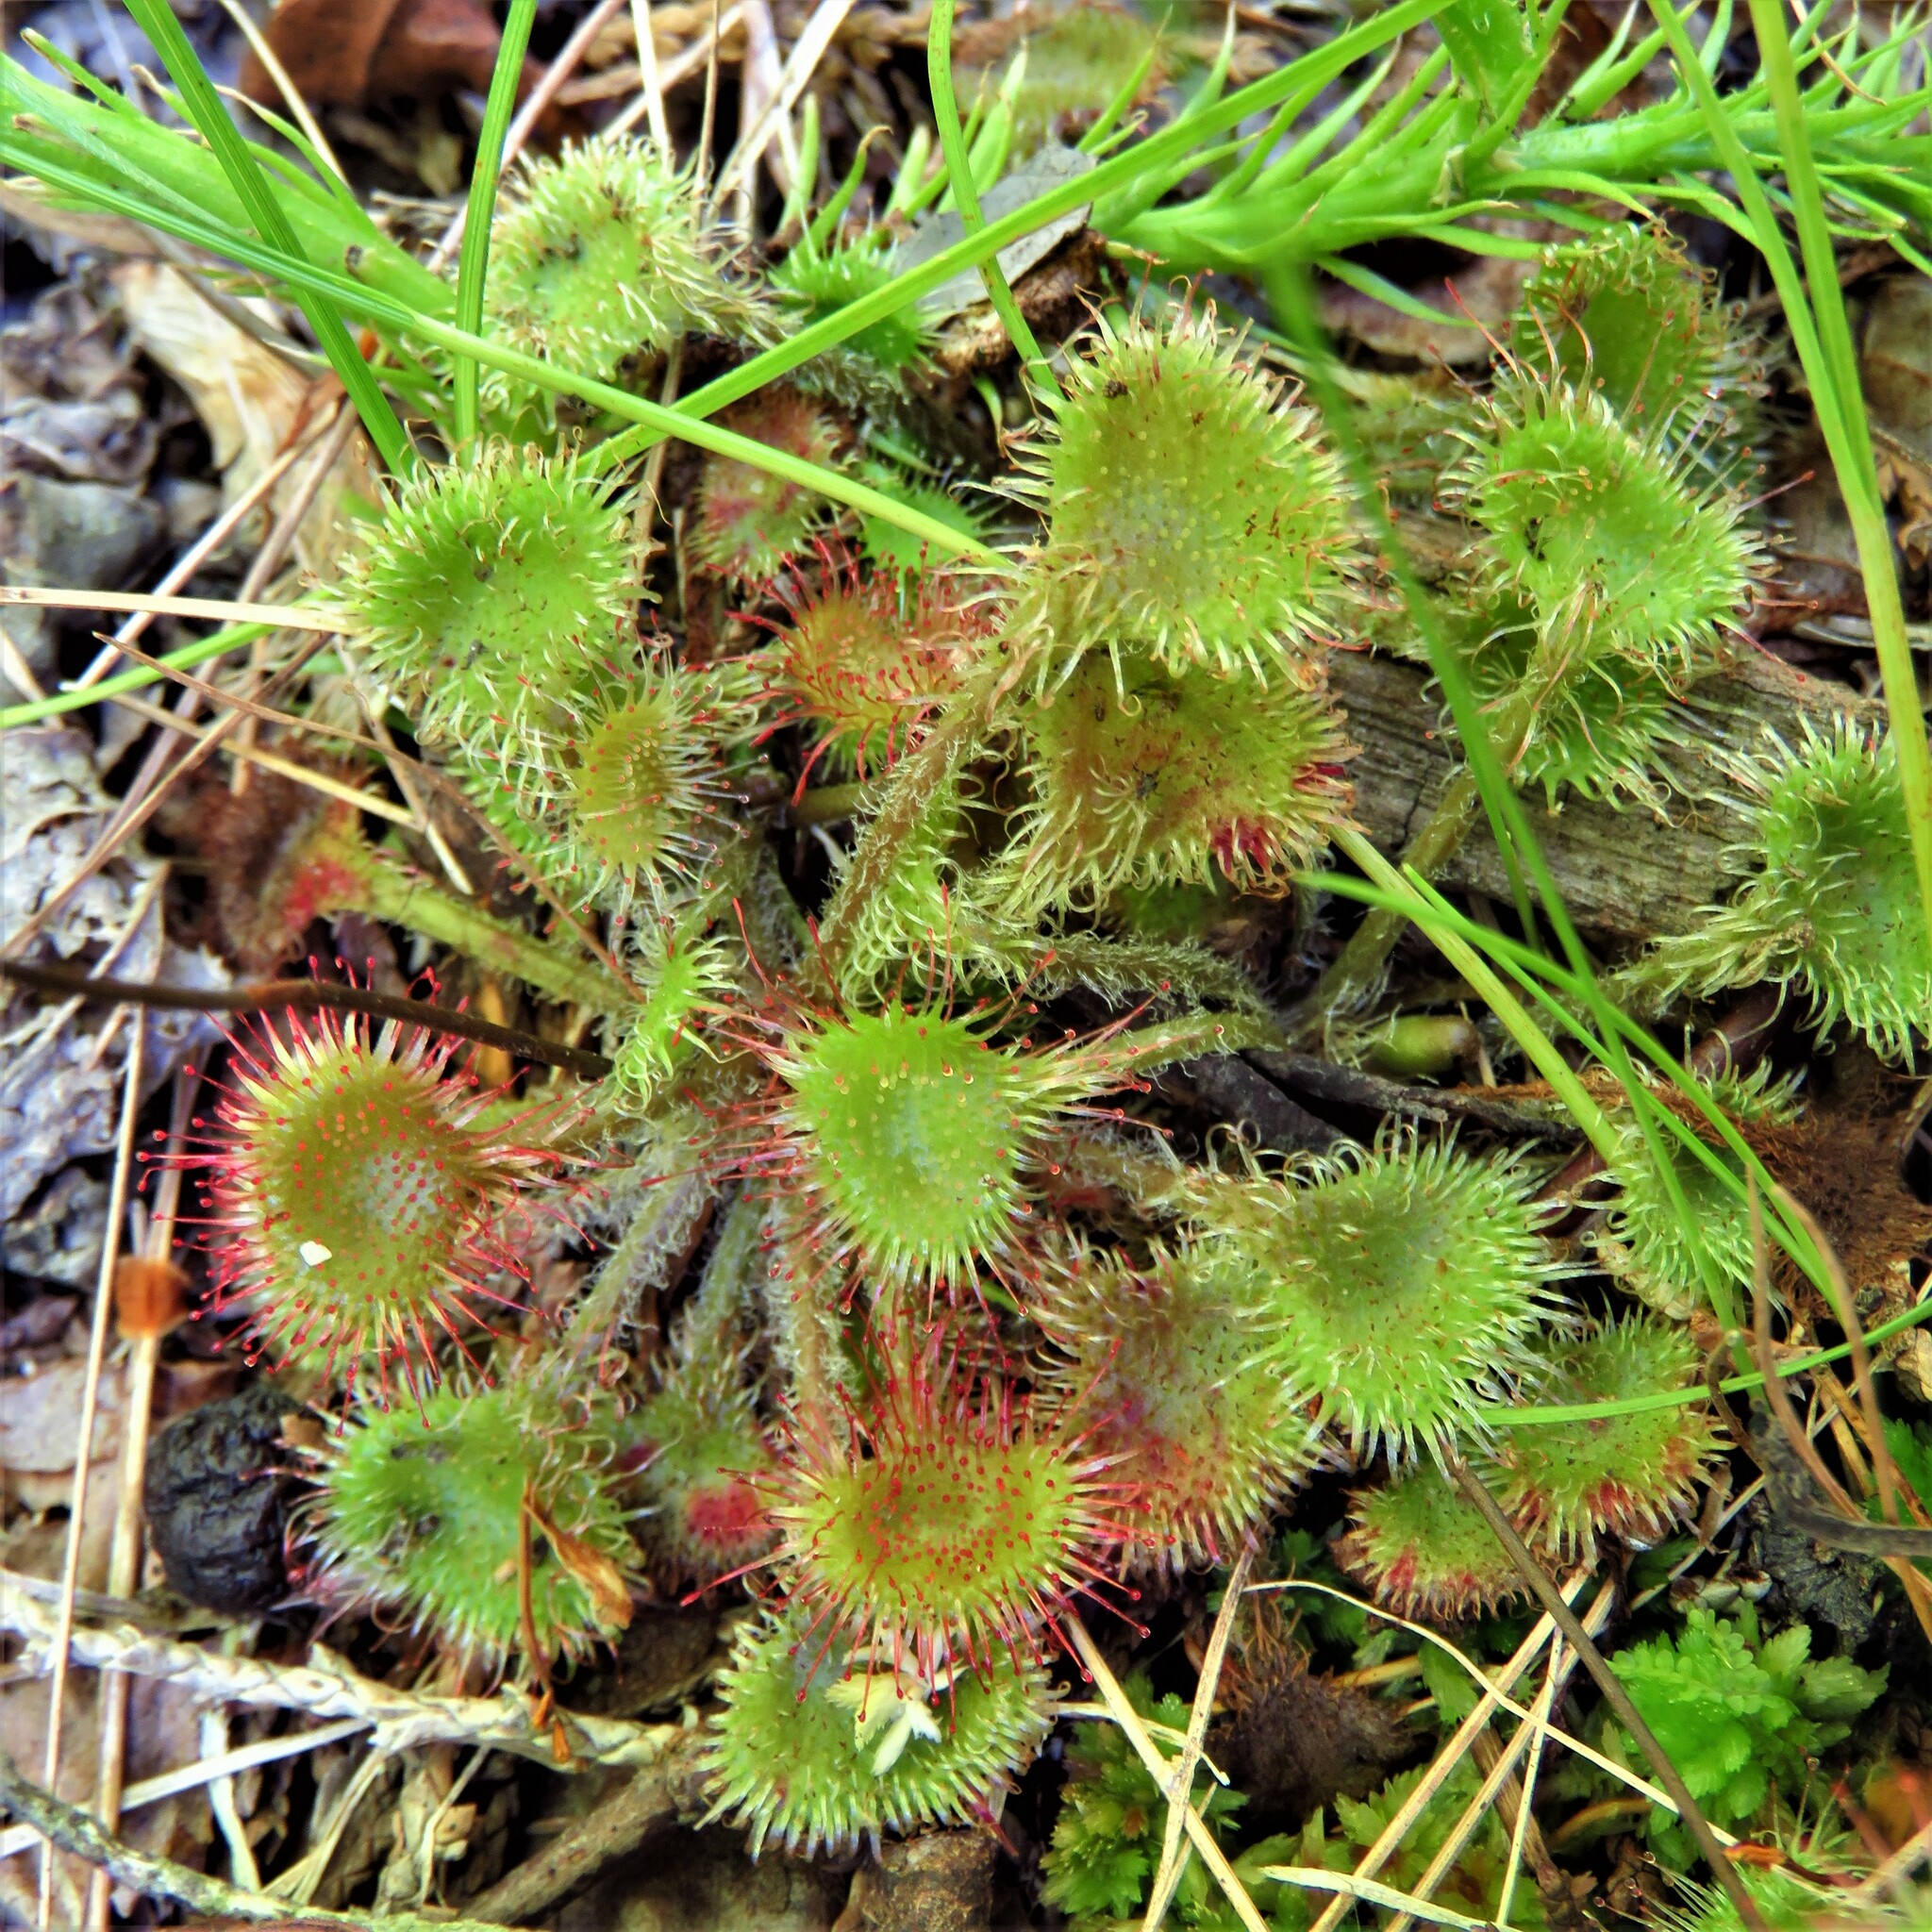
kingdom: Plantae
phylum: Tracheophyta
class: Magnoliopsida
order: Caryophyllales
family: Droseraceae
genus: Drosera
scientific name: Drosera rotundifolia
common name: Round-leaved sundew
